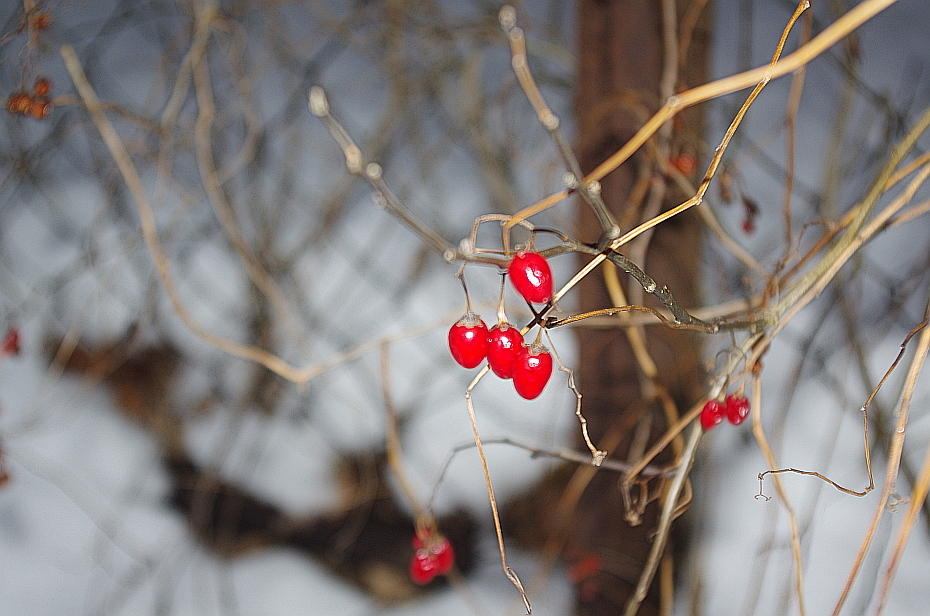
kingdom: Plantae
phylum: Tracheophyta
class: Magnoliopsida
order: Solanales
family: Solanaceae
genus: Solanum
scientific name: Solanum dulcamara
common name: Climbing nightshade
